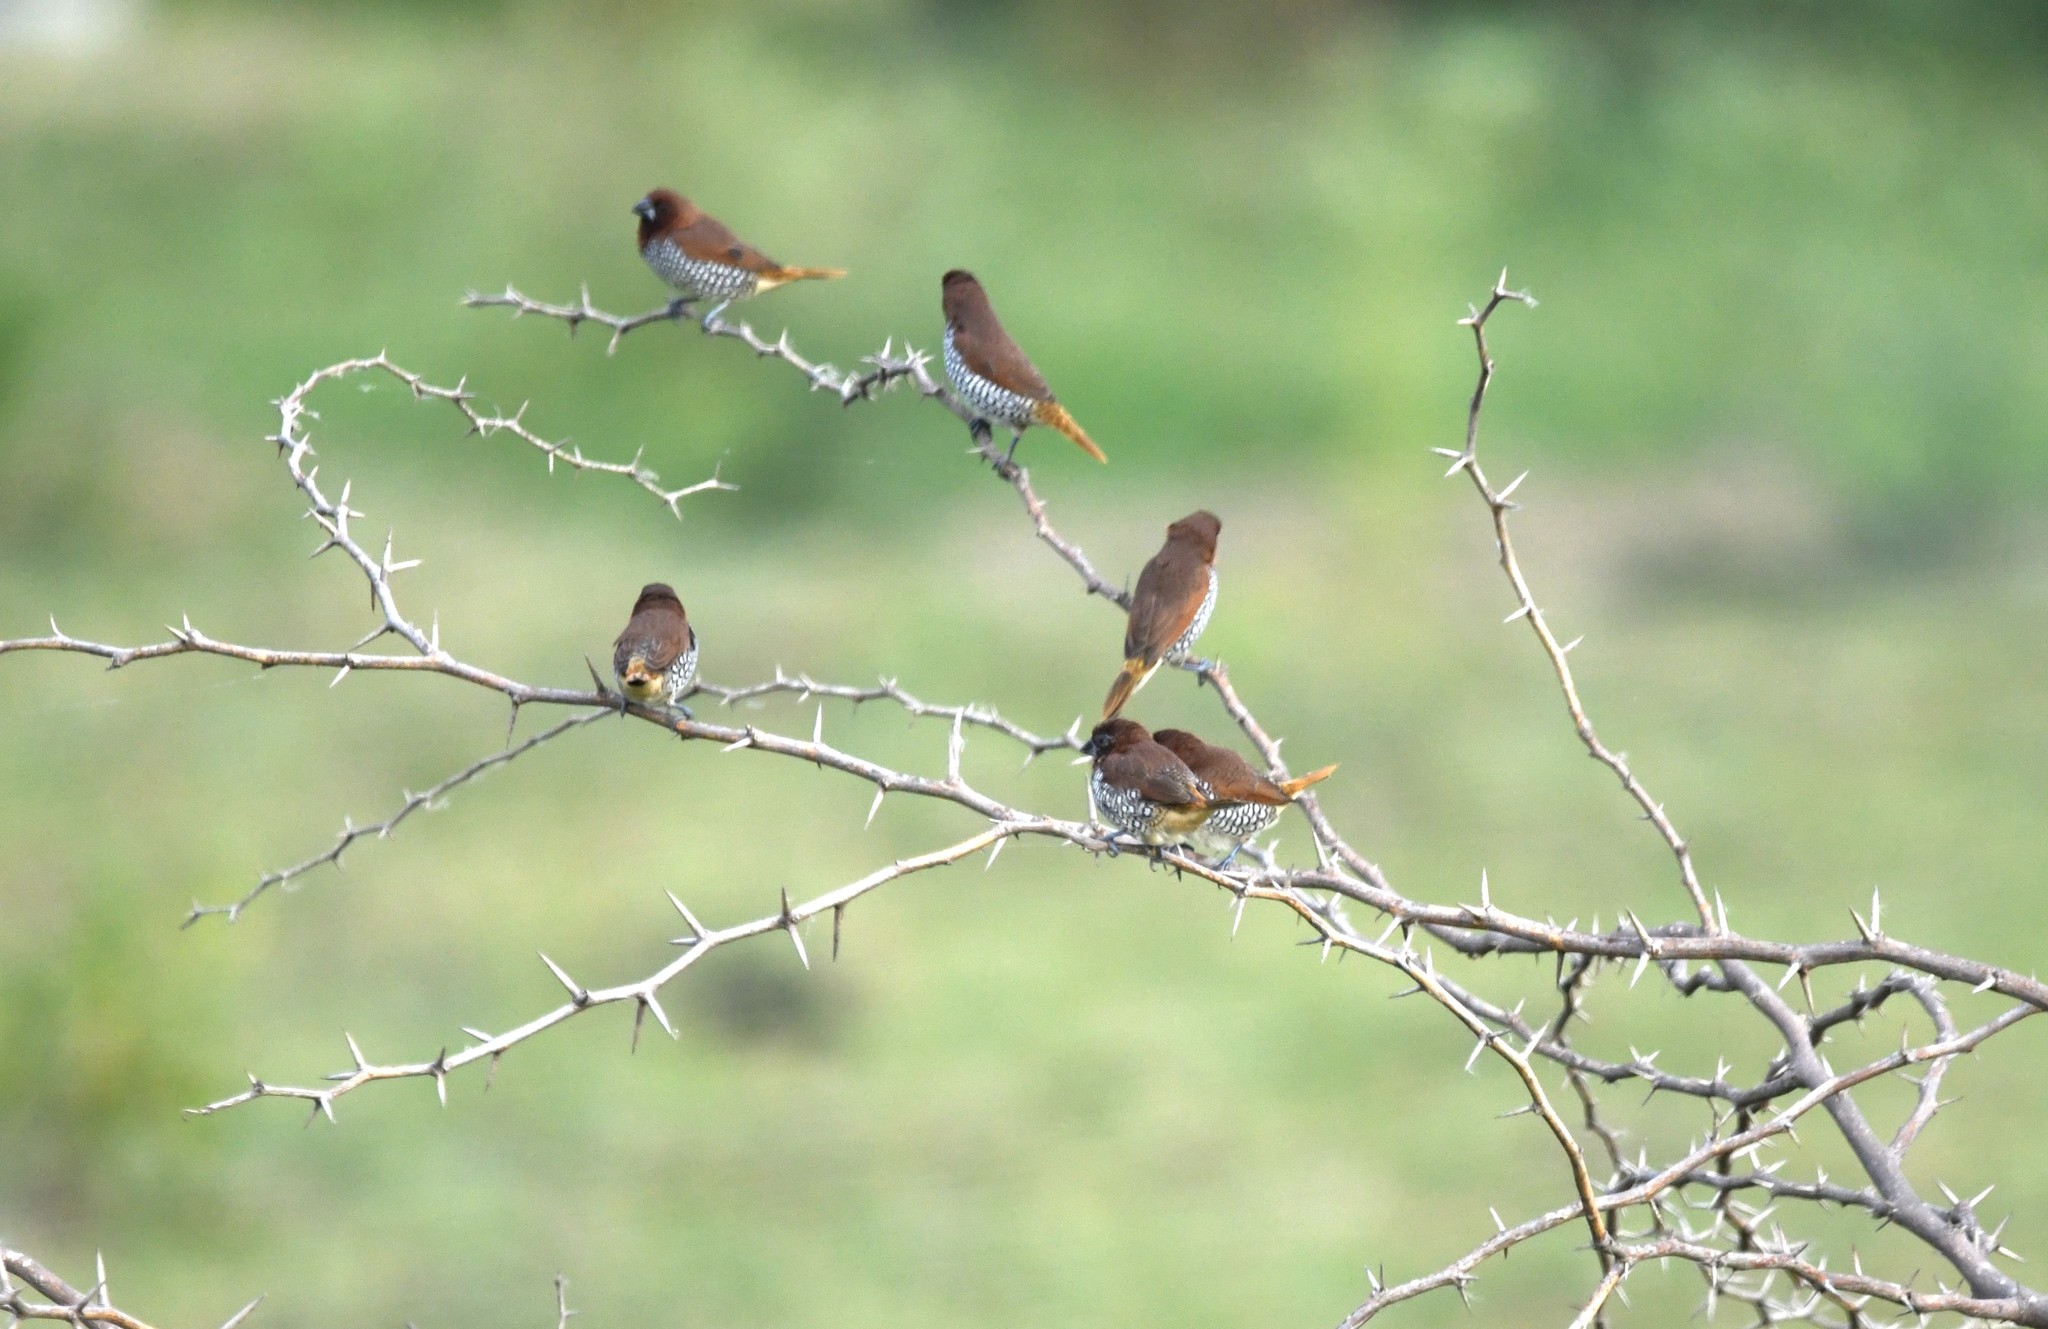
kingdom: Animalia
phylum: Chordata
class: Aves
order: Passeriformes
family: Estrildidae
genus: Lonchura
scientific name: Lonchura punctulata
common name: Scaly-breasted munia
